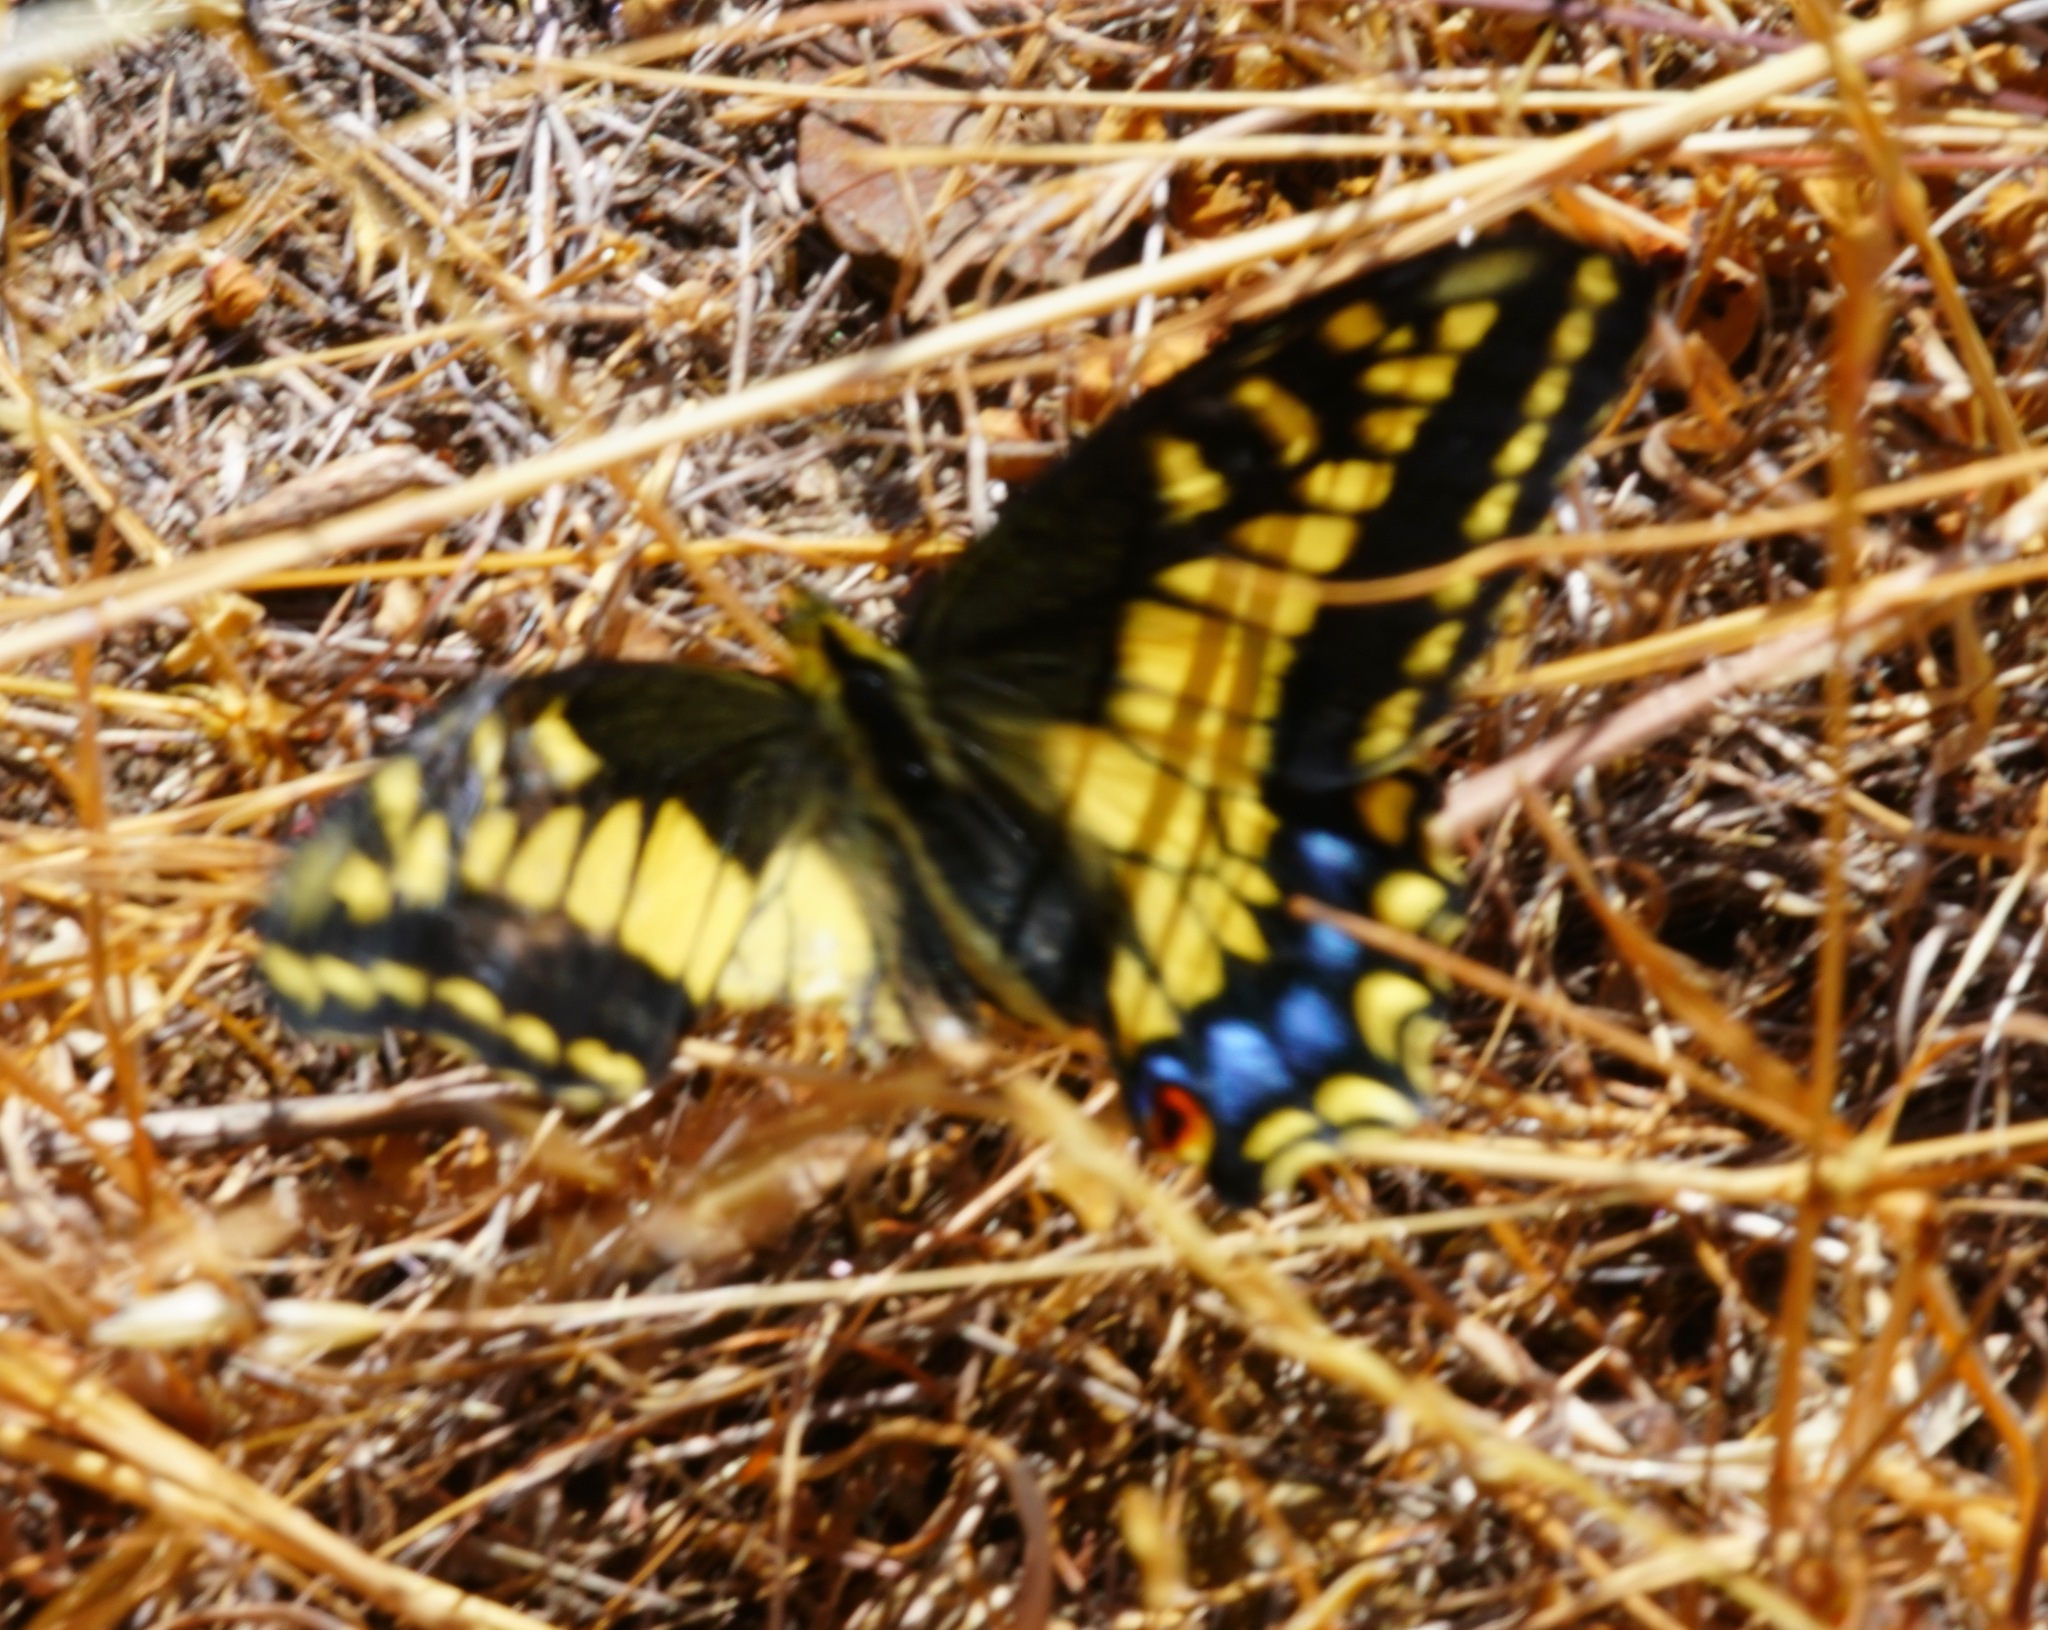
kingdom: Animalia
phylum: Arthropoda
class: Insecta
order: Lepidoptera
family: Papilionidae
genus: Papilio
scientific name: Papilio zelicaon
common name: Anise swallowtail
